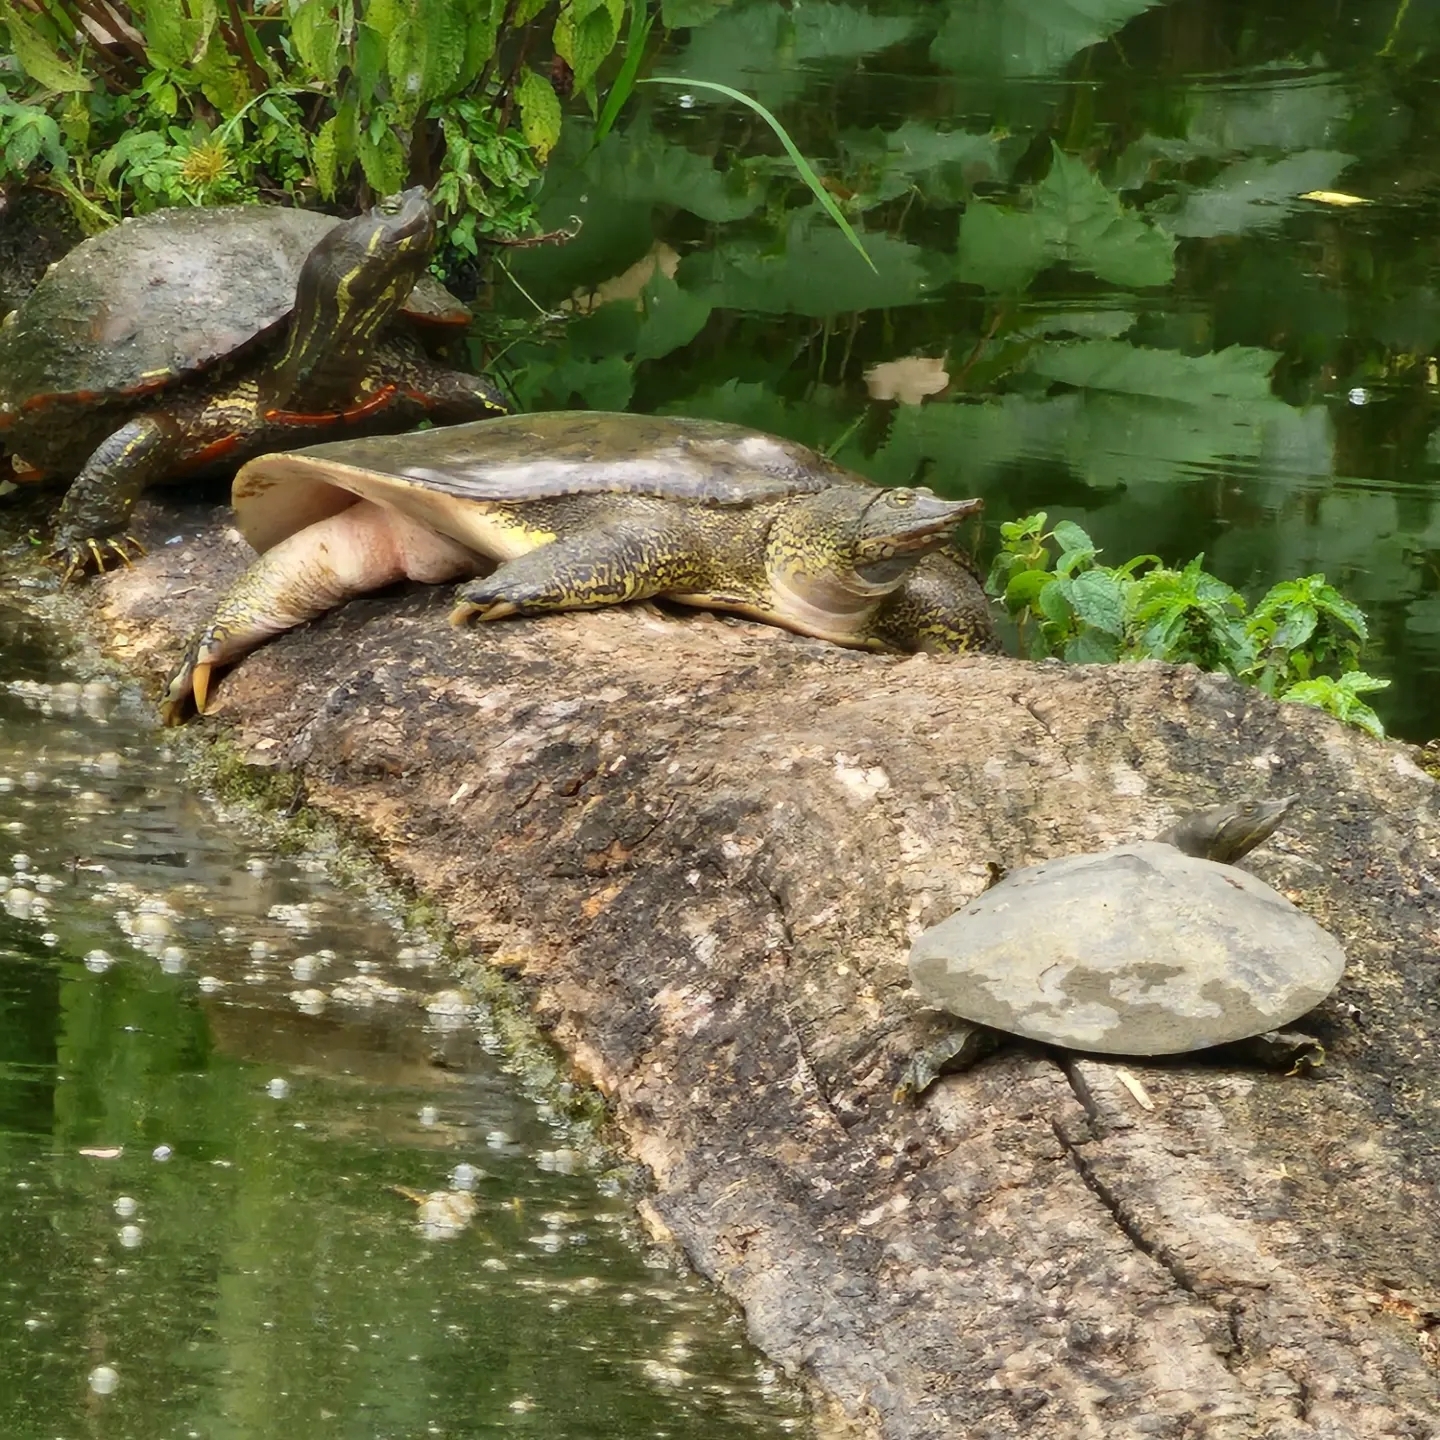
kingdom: Animalia
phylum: Chordata
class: Testudines
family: Trionychidae
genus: Apalone
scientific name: Apalone spinifera
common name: Spiny softshell turtle
